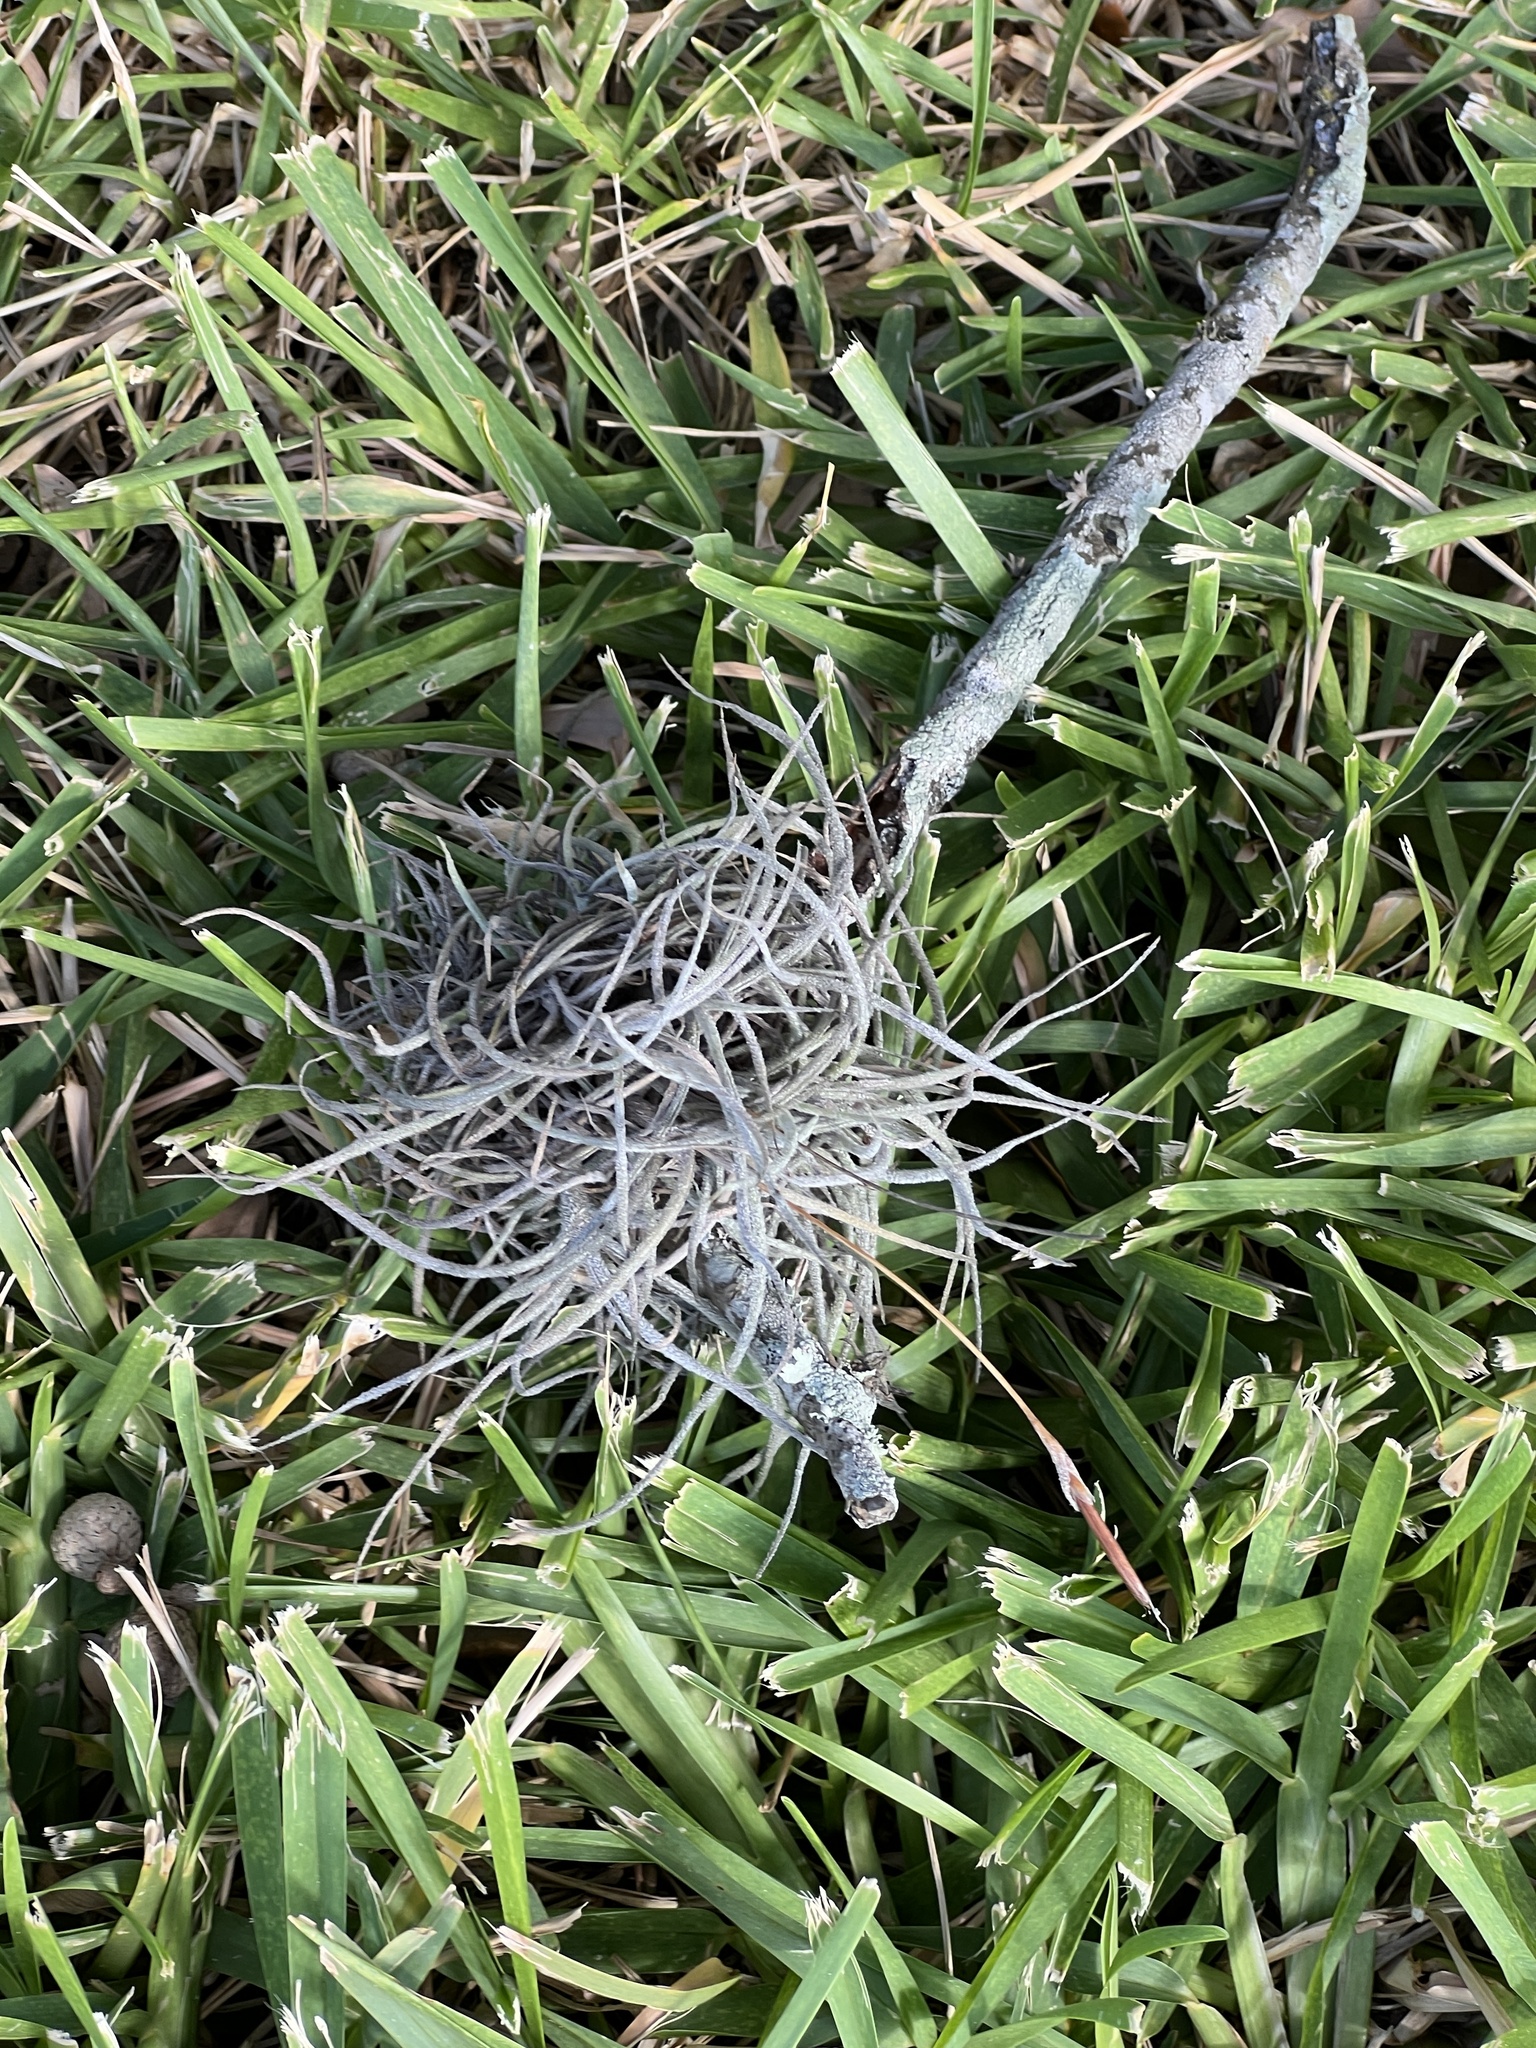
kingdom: Plantae
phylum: Tracheophyta
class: Liliopsida
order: Poales
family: Bromeliaceae
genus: Tillandsia
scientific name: Tillandsia recurvata
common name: Small ballmoss
